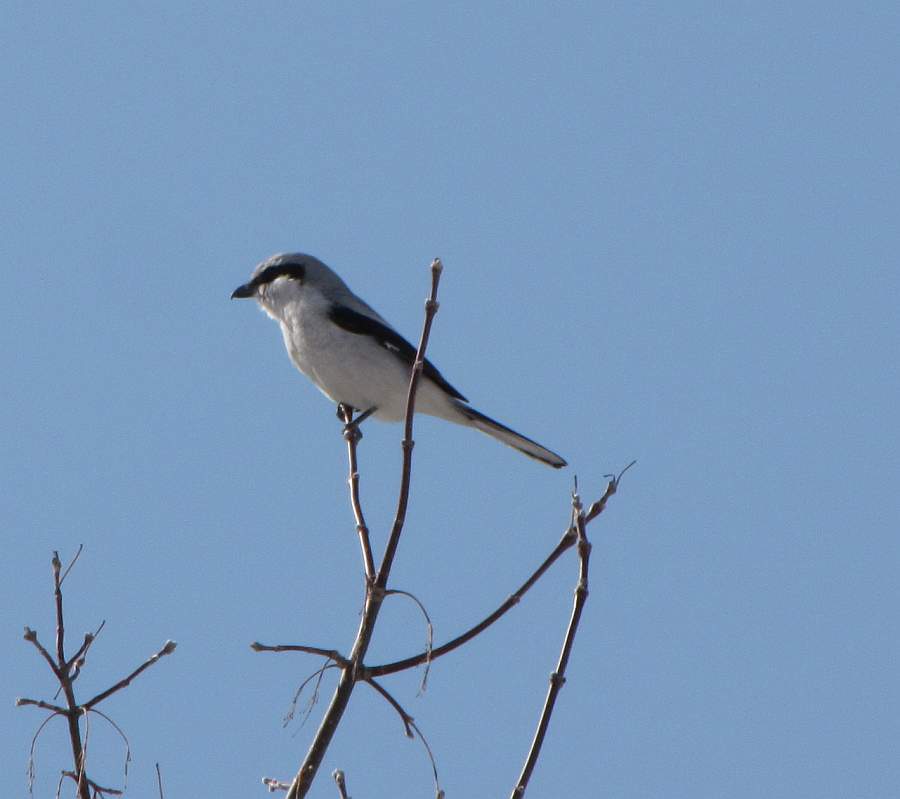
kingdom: Animalia
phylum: Chordata
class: Aves
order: Passeriformes
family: Laniidae
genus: Lanius
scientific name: Lanius borealis
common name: Northern shrike
